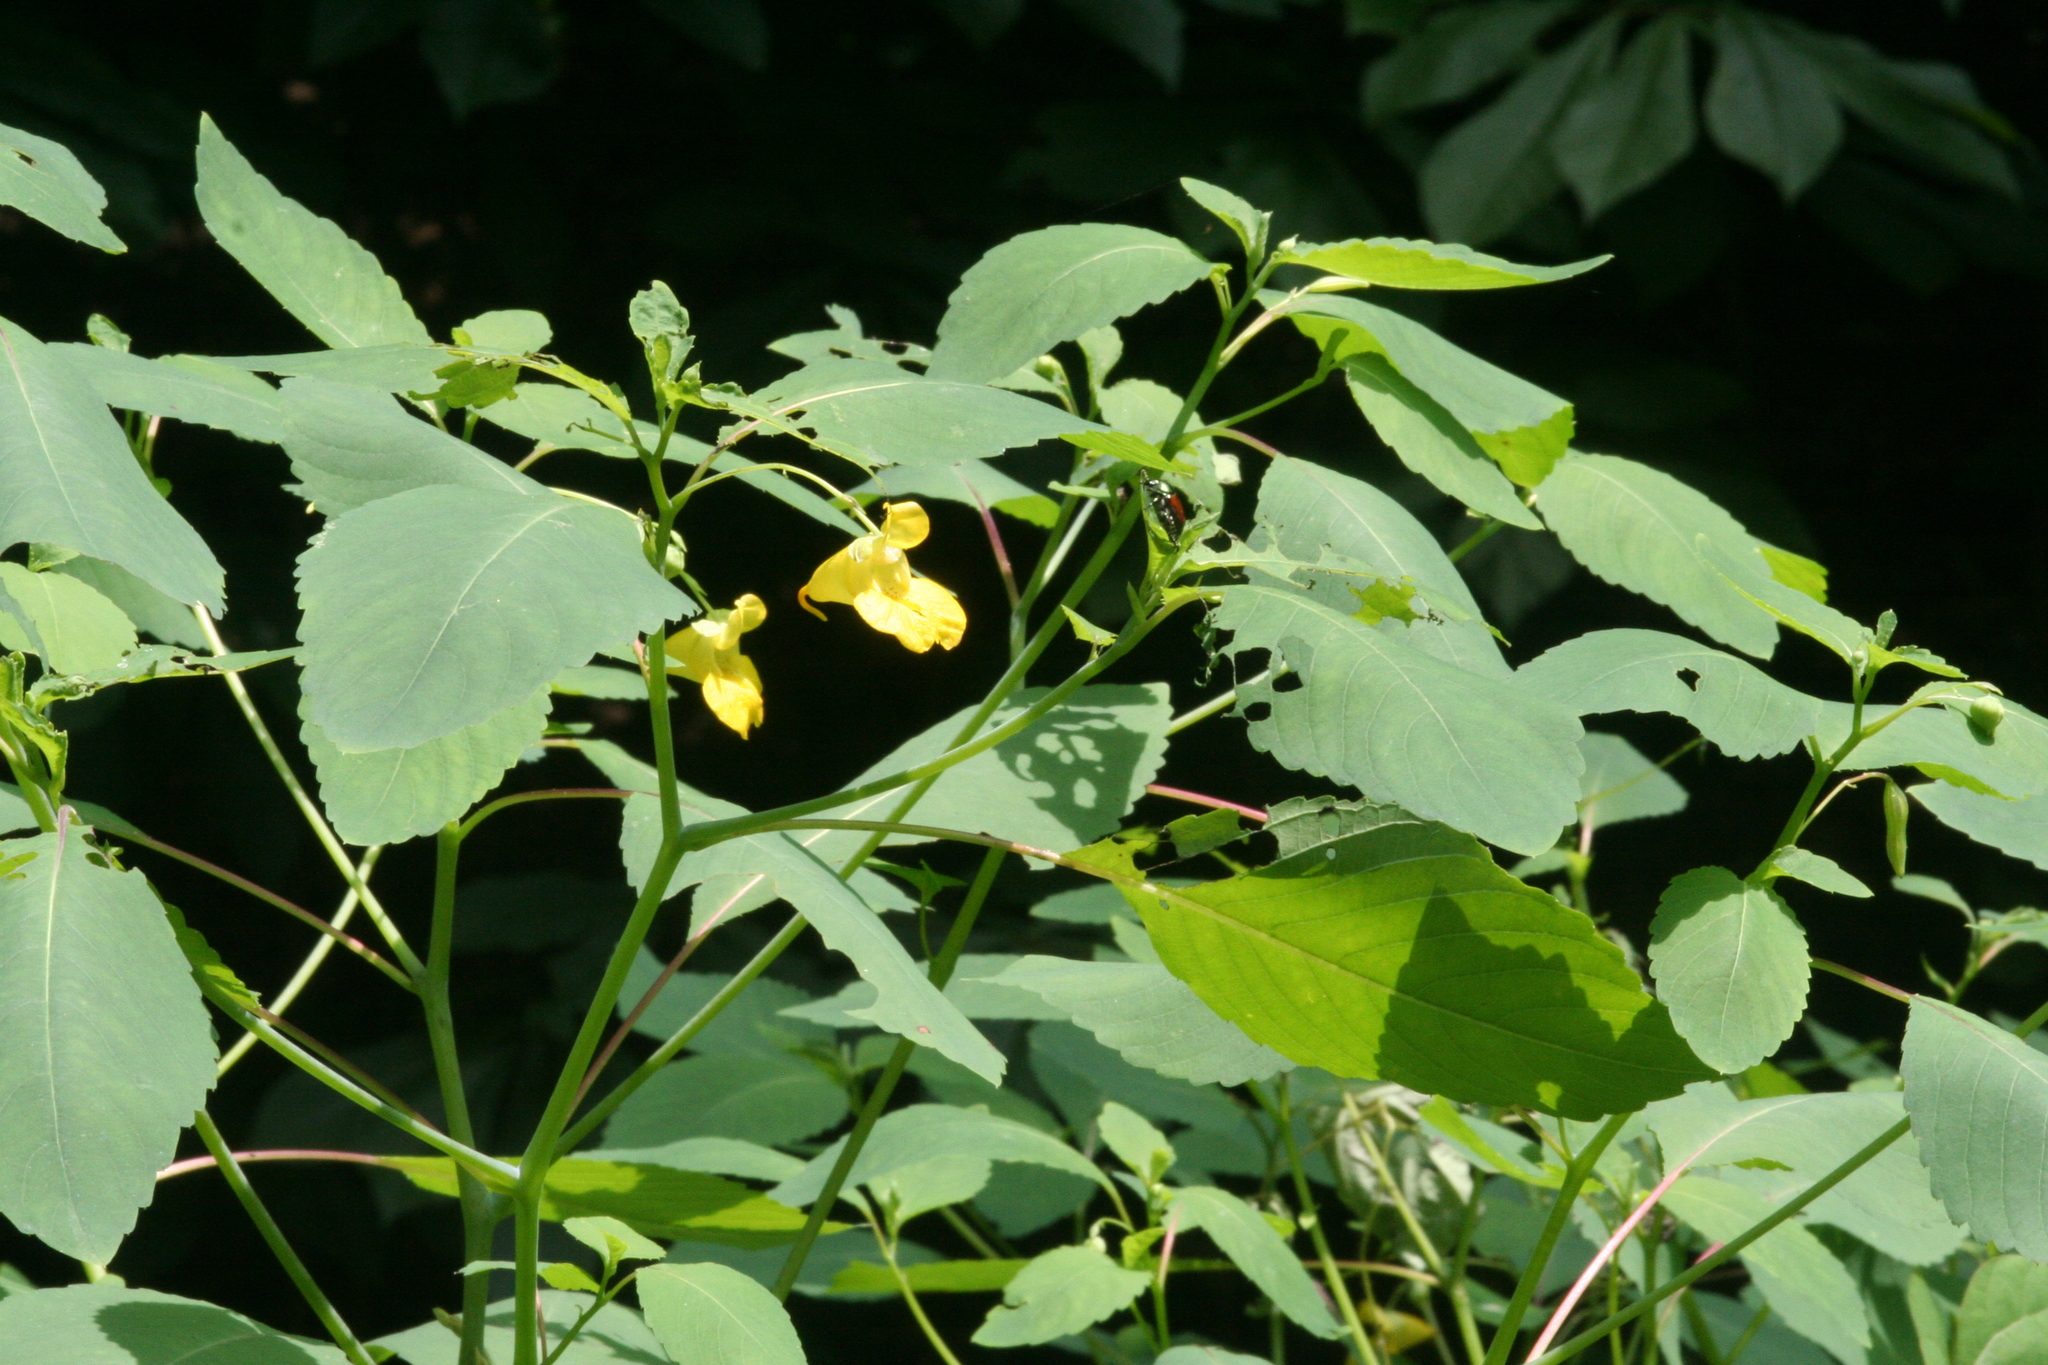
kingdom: Plantae
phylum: Tracheophyta
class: Magnoliopsida
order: Ericales
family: Balsaminaceae
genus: Impatiens
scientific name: Impatiens pallida
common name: Pale snapweed
